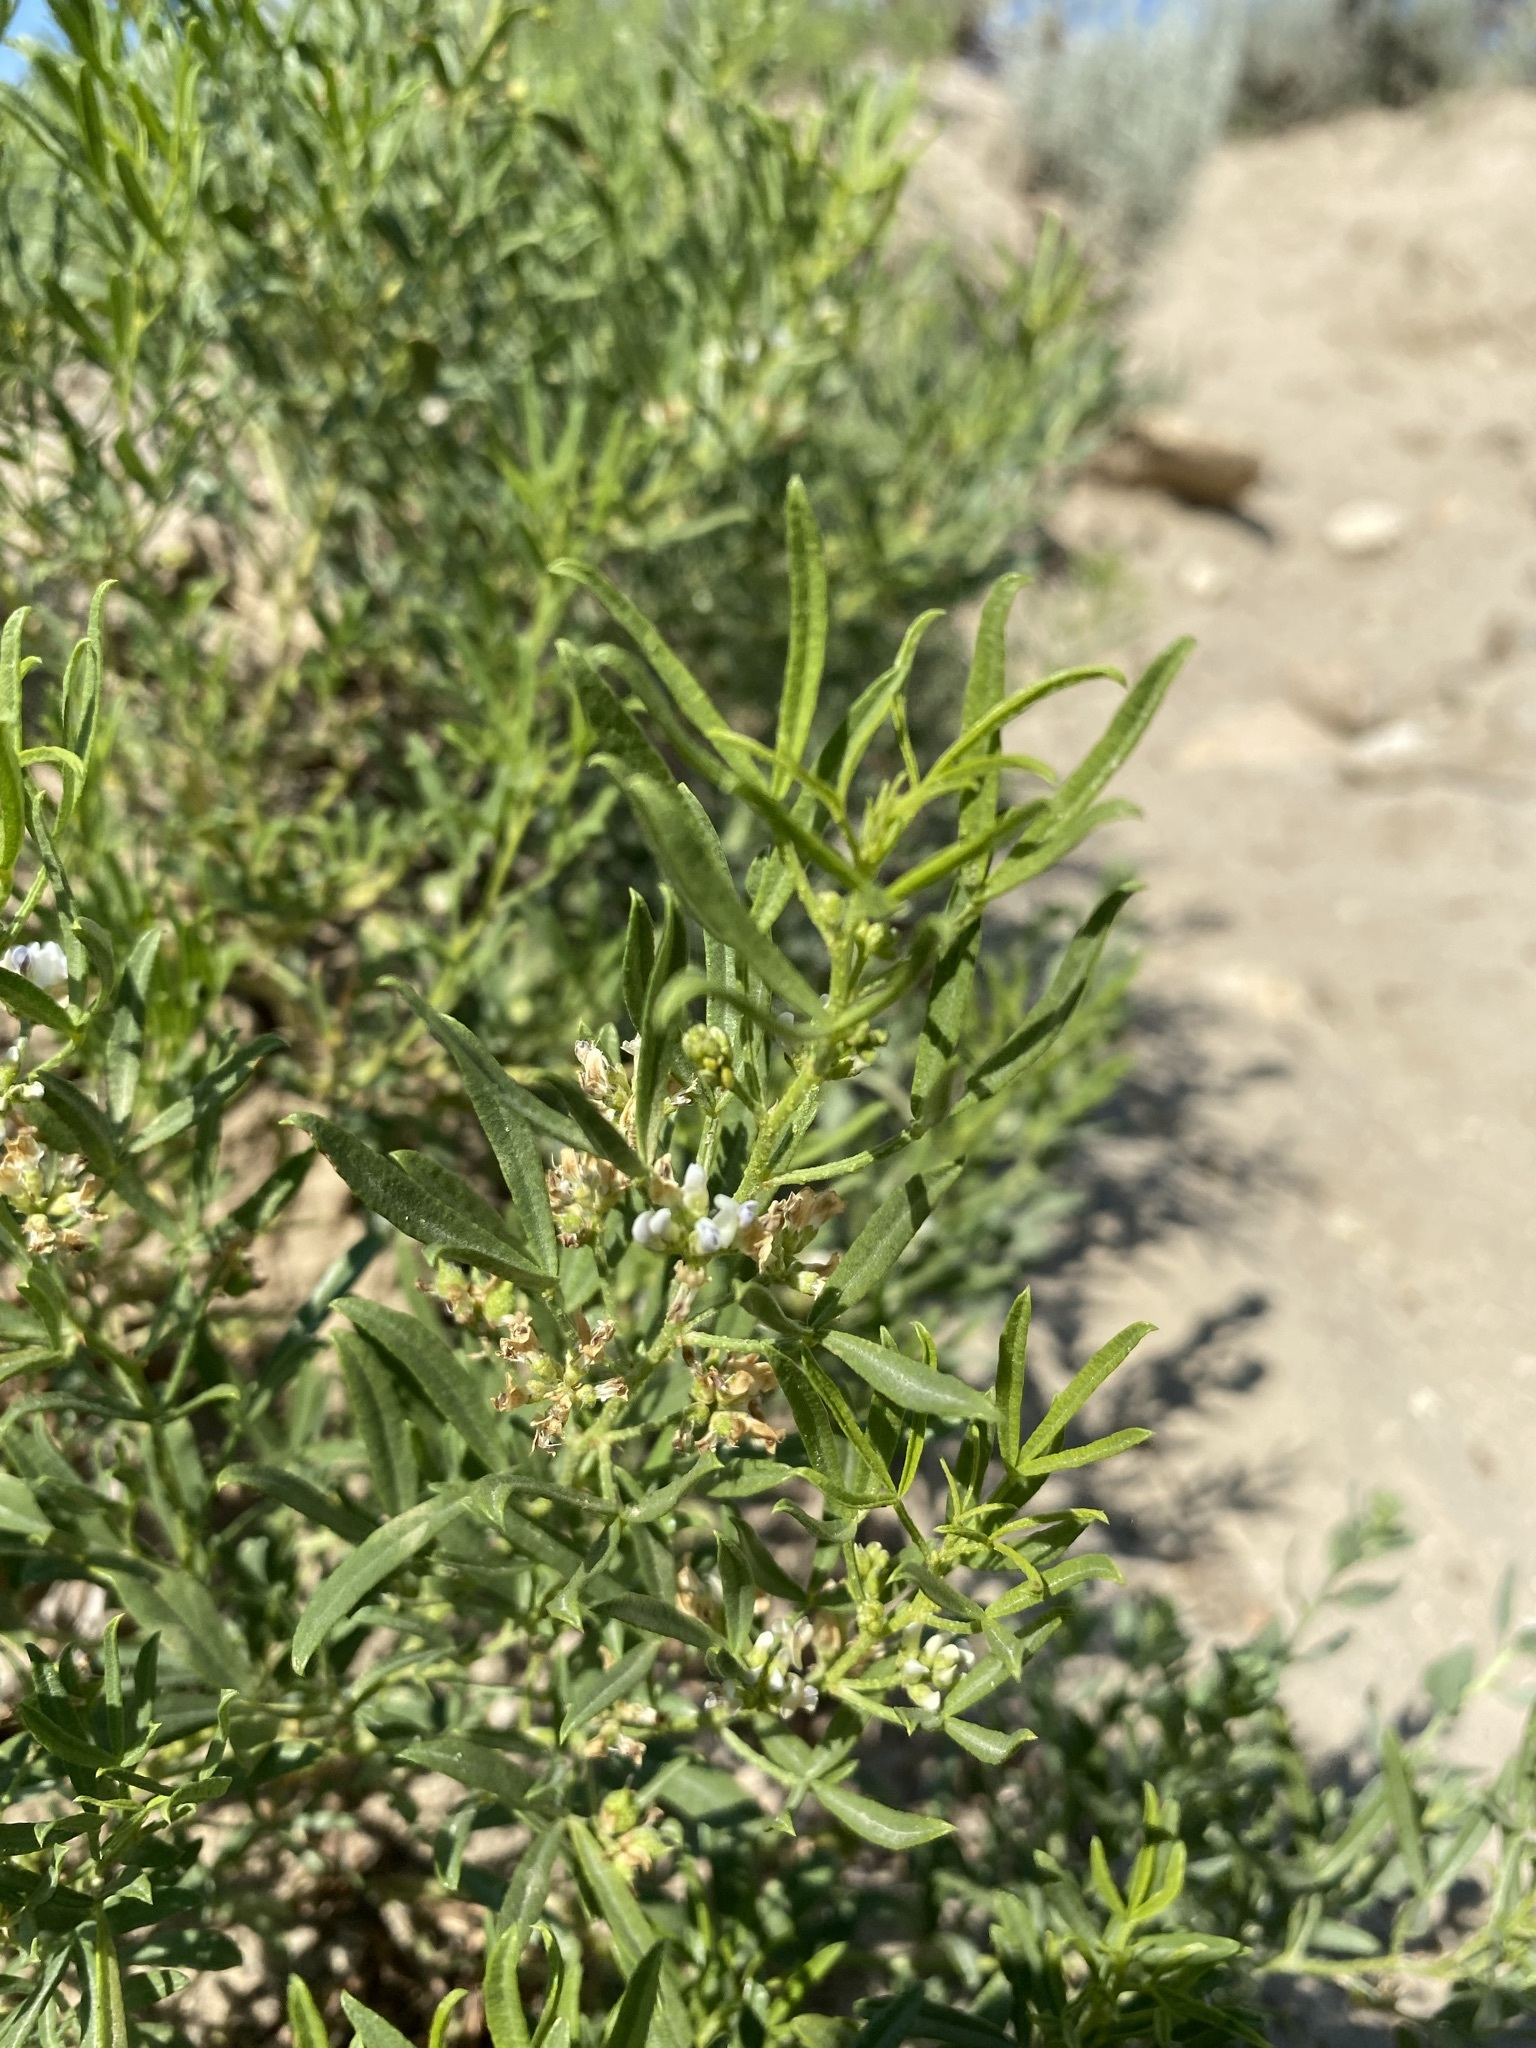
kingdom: Plantae
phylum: Tracheophyta
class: Magnoliopsida
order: Fabales
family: Fabaceae
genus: Ladeania
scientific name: Ladeania lanceolata
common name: Dune scurf-pea
